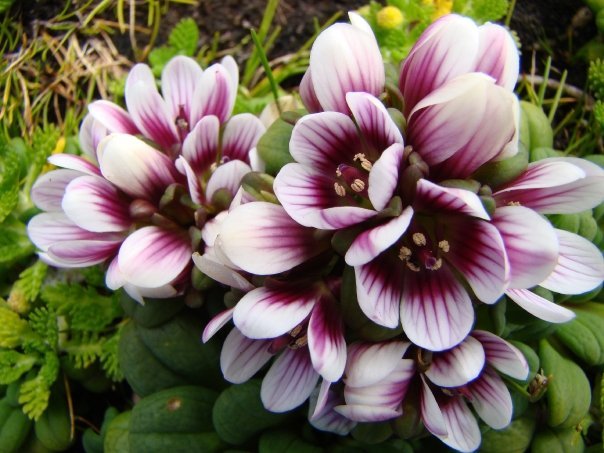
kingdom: Plantae
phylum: Tracheophyta
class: Magnoliopsida
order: Gentianales
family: Gentianaceae
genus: Gentianella
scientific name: Gentianella cerina
